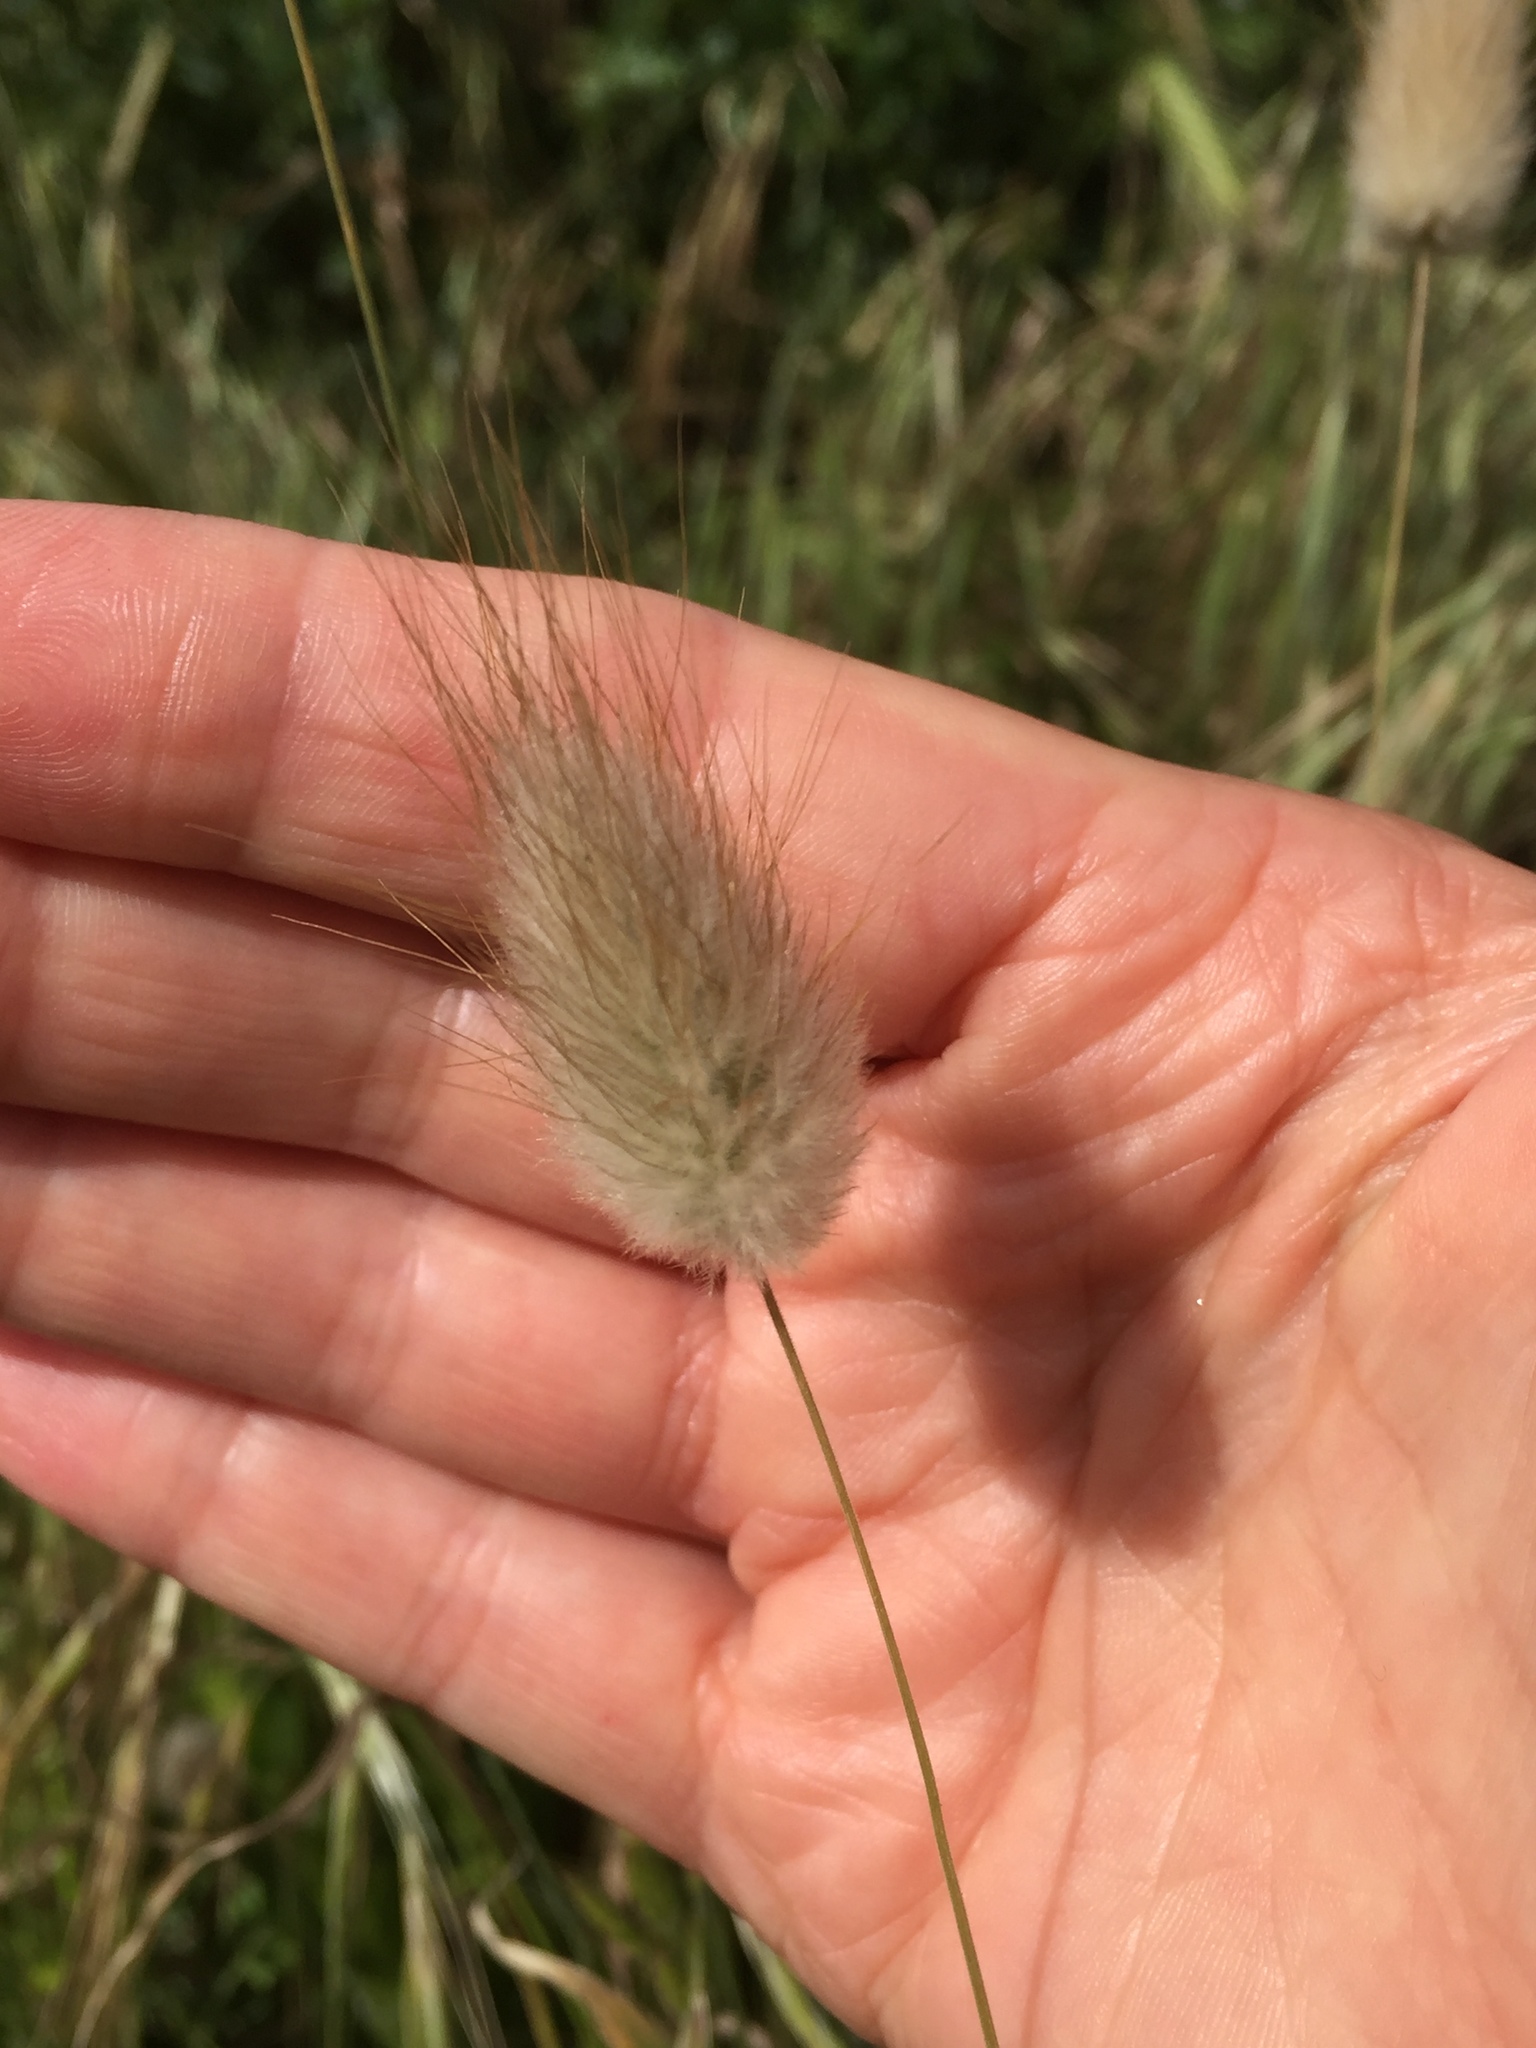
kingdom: Plantae
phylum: Tracheophyta
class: Liliopsida
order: Poales
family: Poaceae
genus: Lagurus
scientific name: Lagurus ovatus
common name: Hare's-tail
